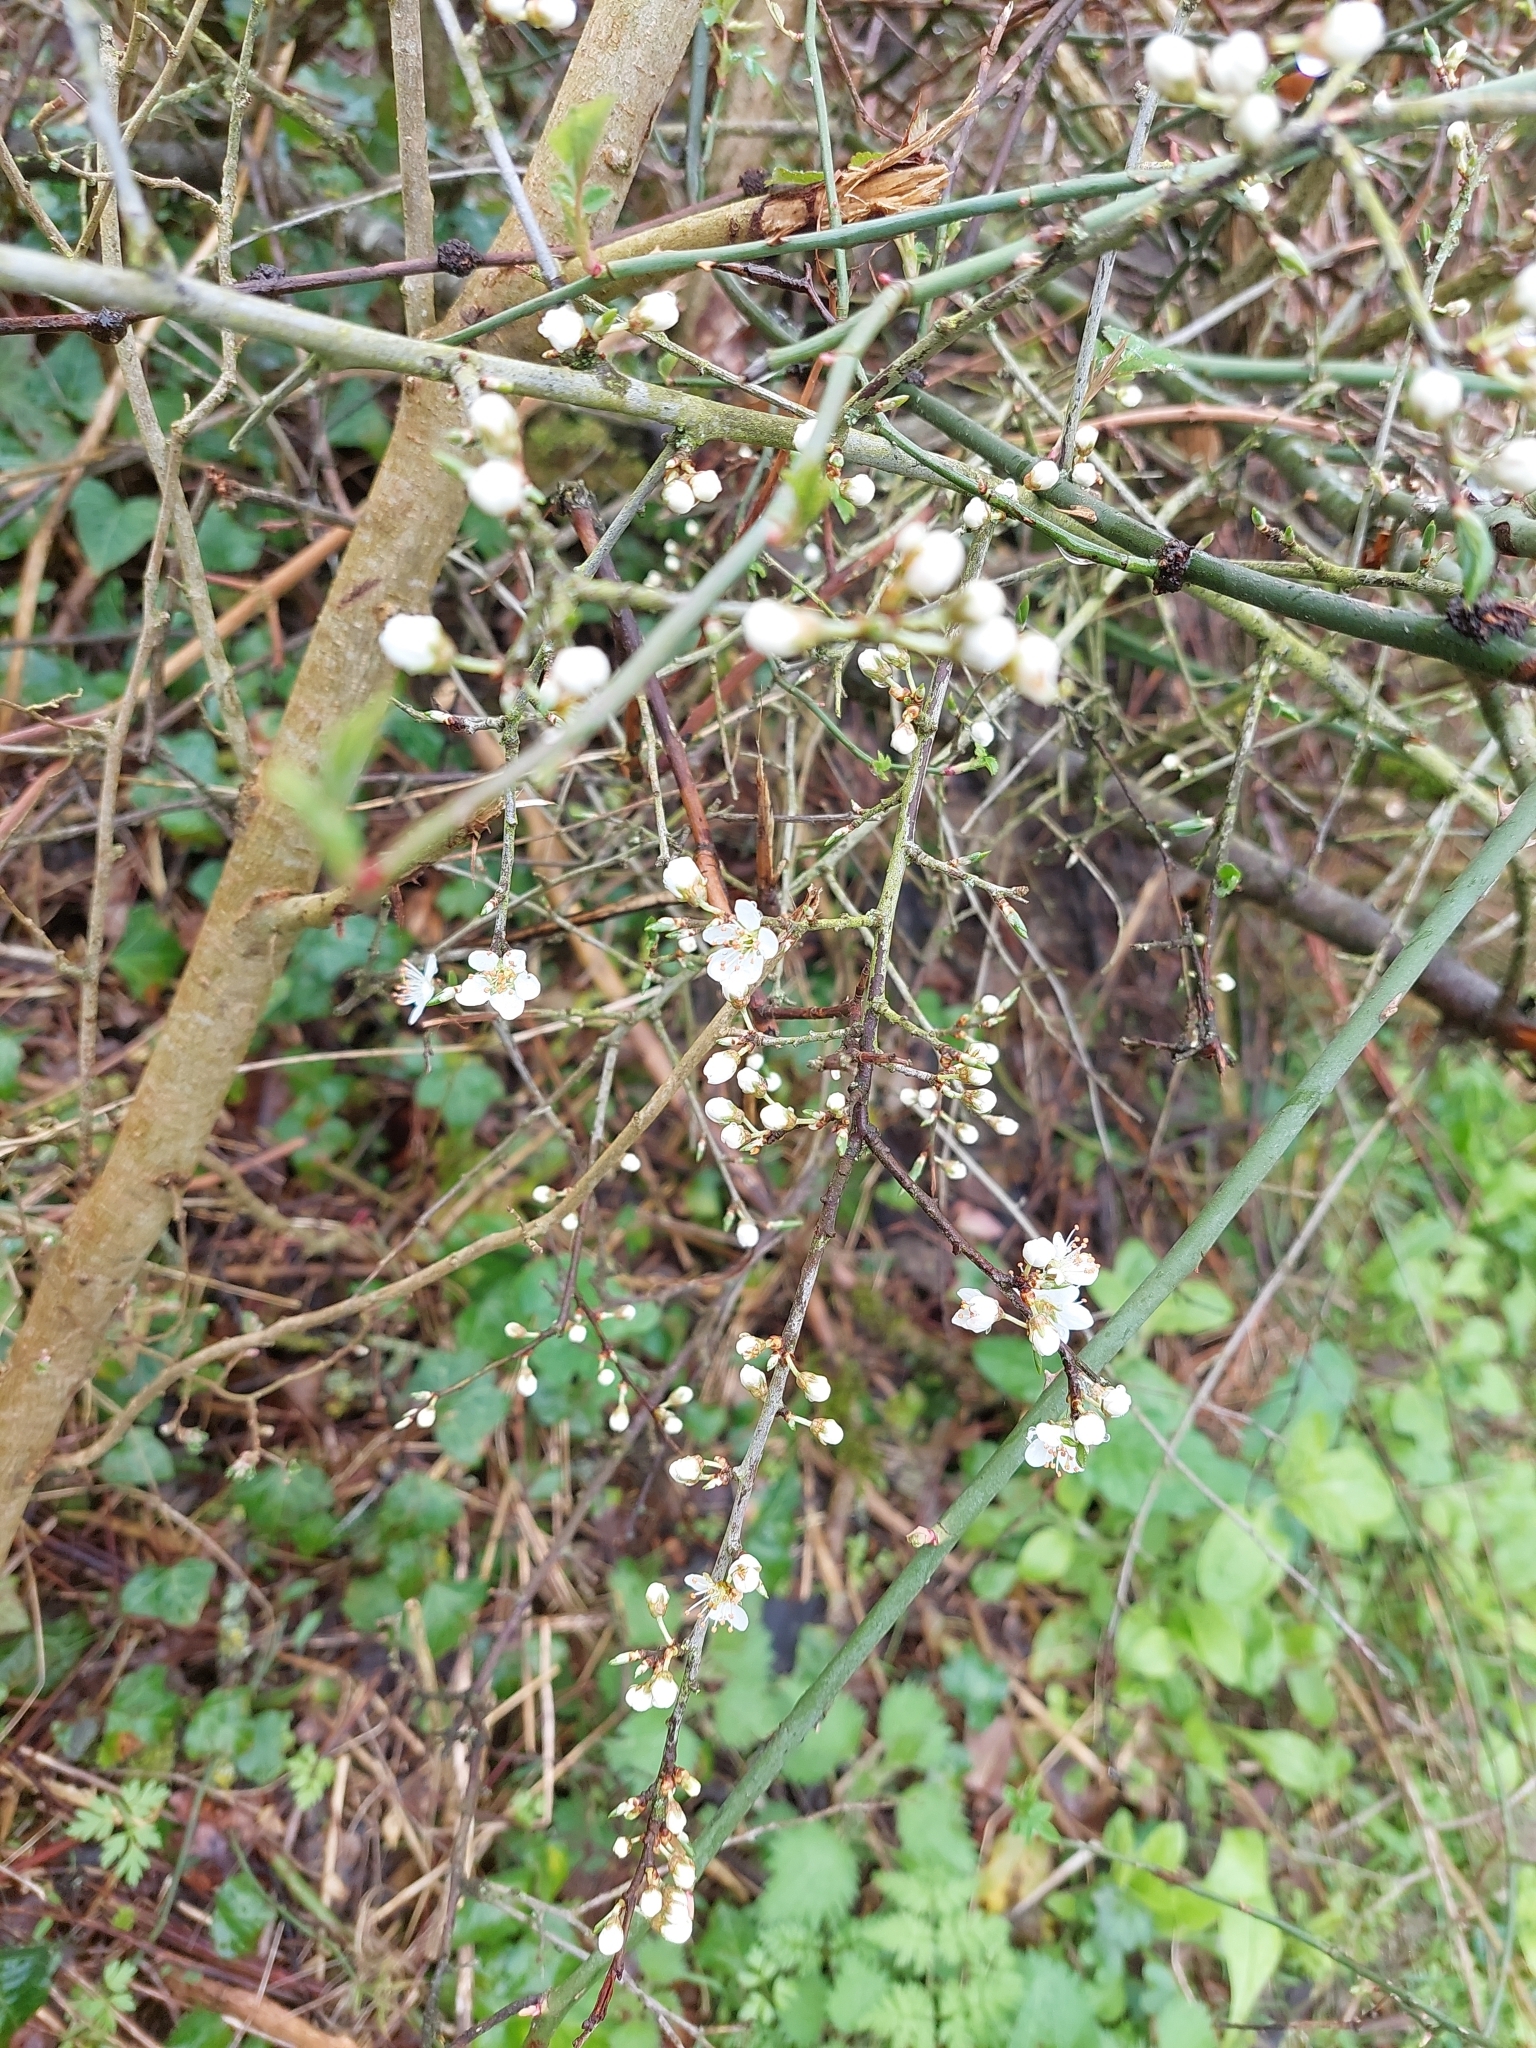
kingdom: Plantae
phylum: Tracheophyta
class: Magnoliopsida
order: Rosales
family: Rosaceae
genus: Prunus
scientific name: Prunus spinosa
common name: Blackthorn
